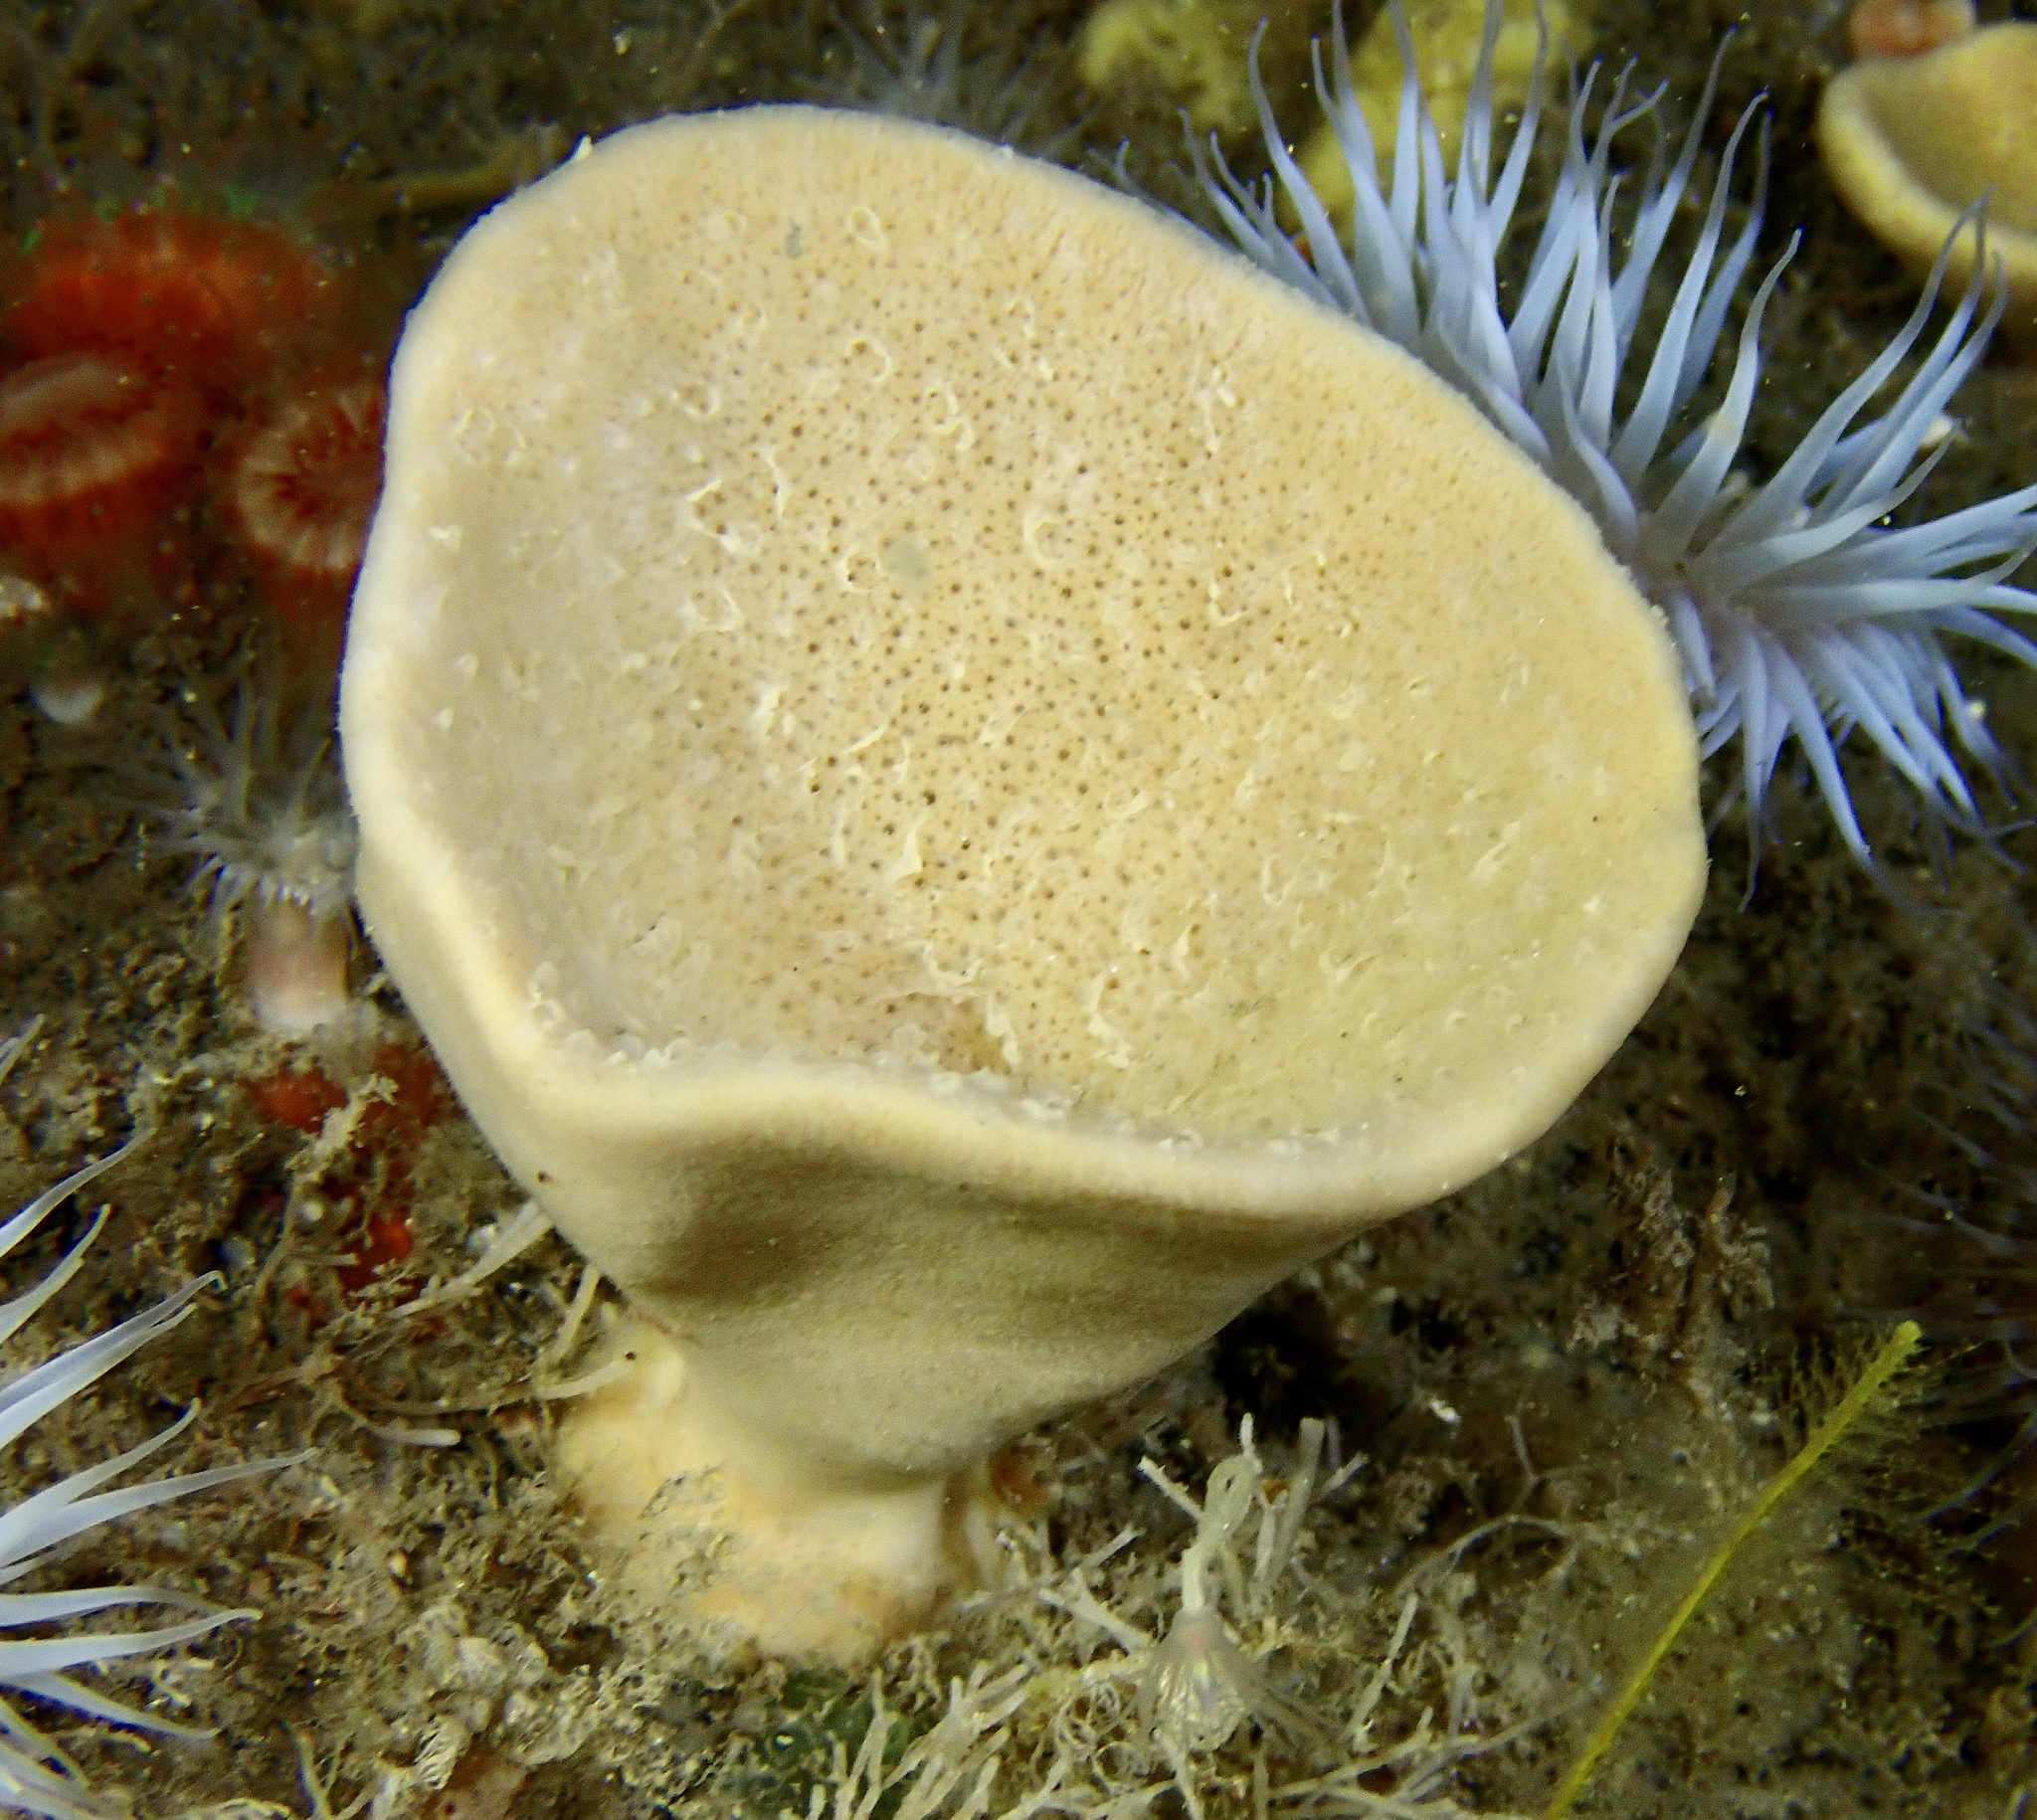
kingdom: Animalia
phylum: Porifera
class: Demospongiae
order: Axinellida
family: Axinellidae
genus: Axinella
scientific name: Axinella infundibuliformis
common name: North atlantic cup sponge
